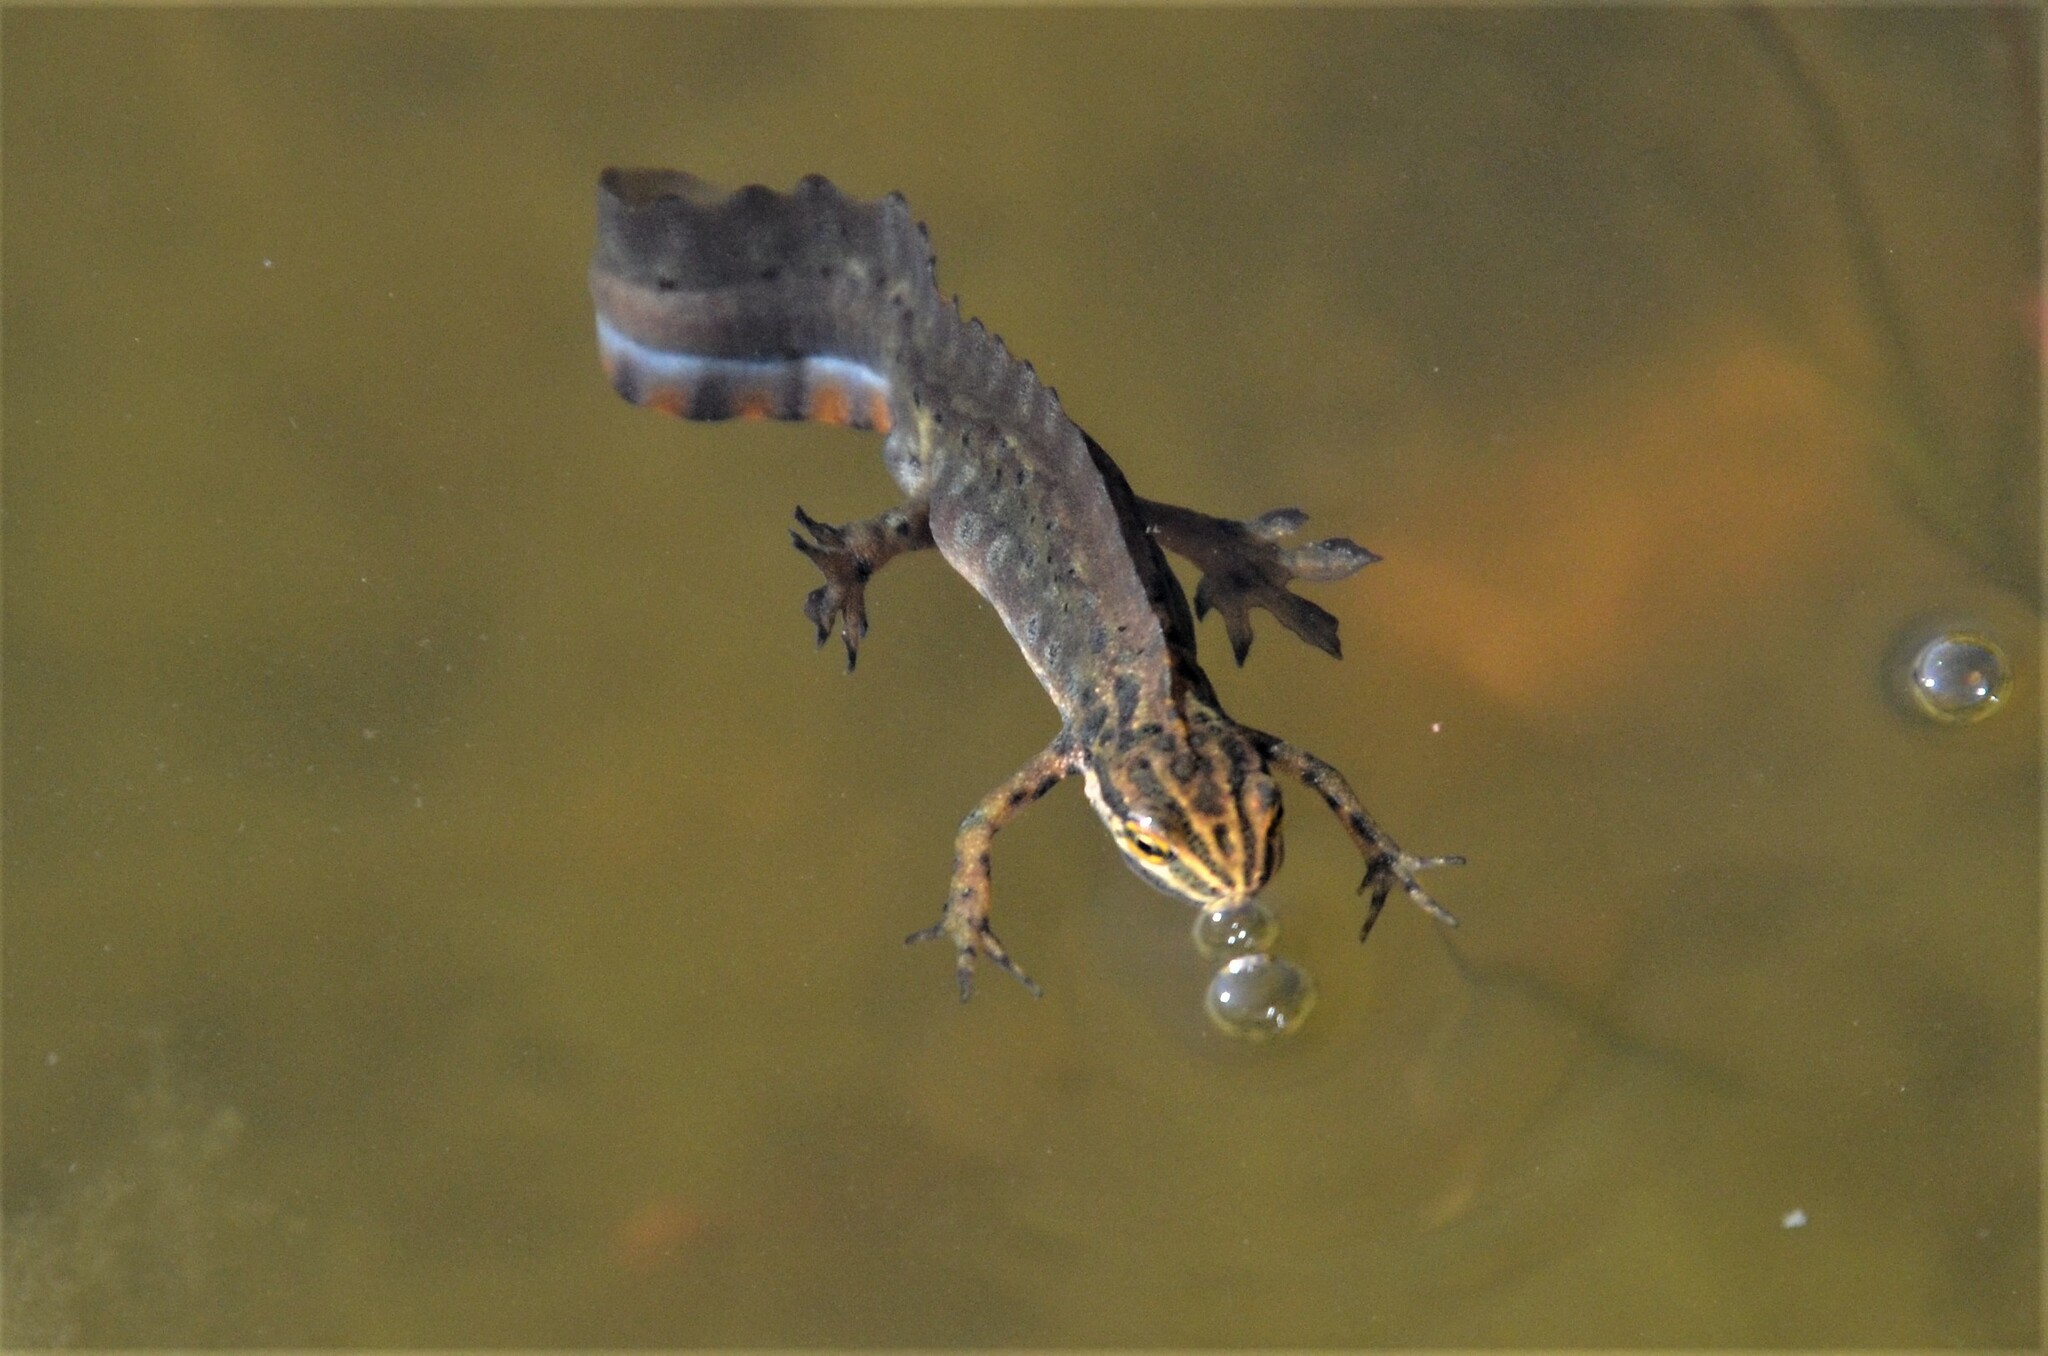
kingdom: Animalia
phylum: Chordata
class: Amphibia
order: Caudata
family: Salamandridae
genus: Lissotriton
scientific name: Lissotriton vulgaris
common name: Smooth newt
